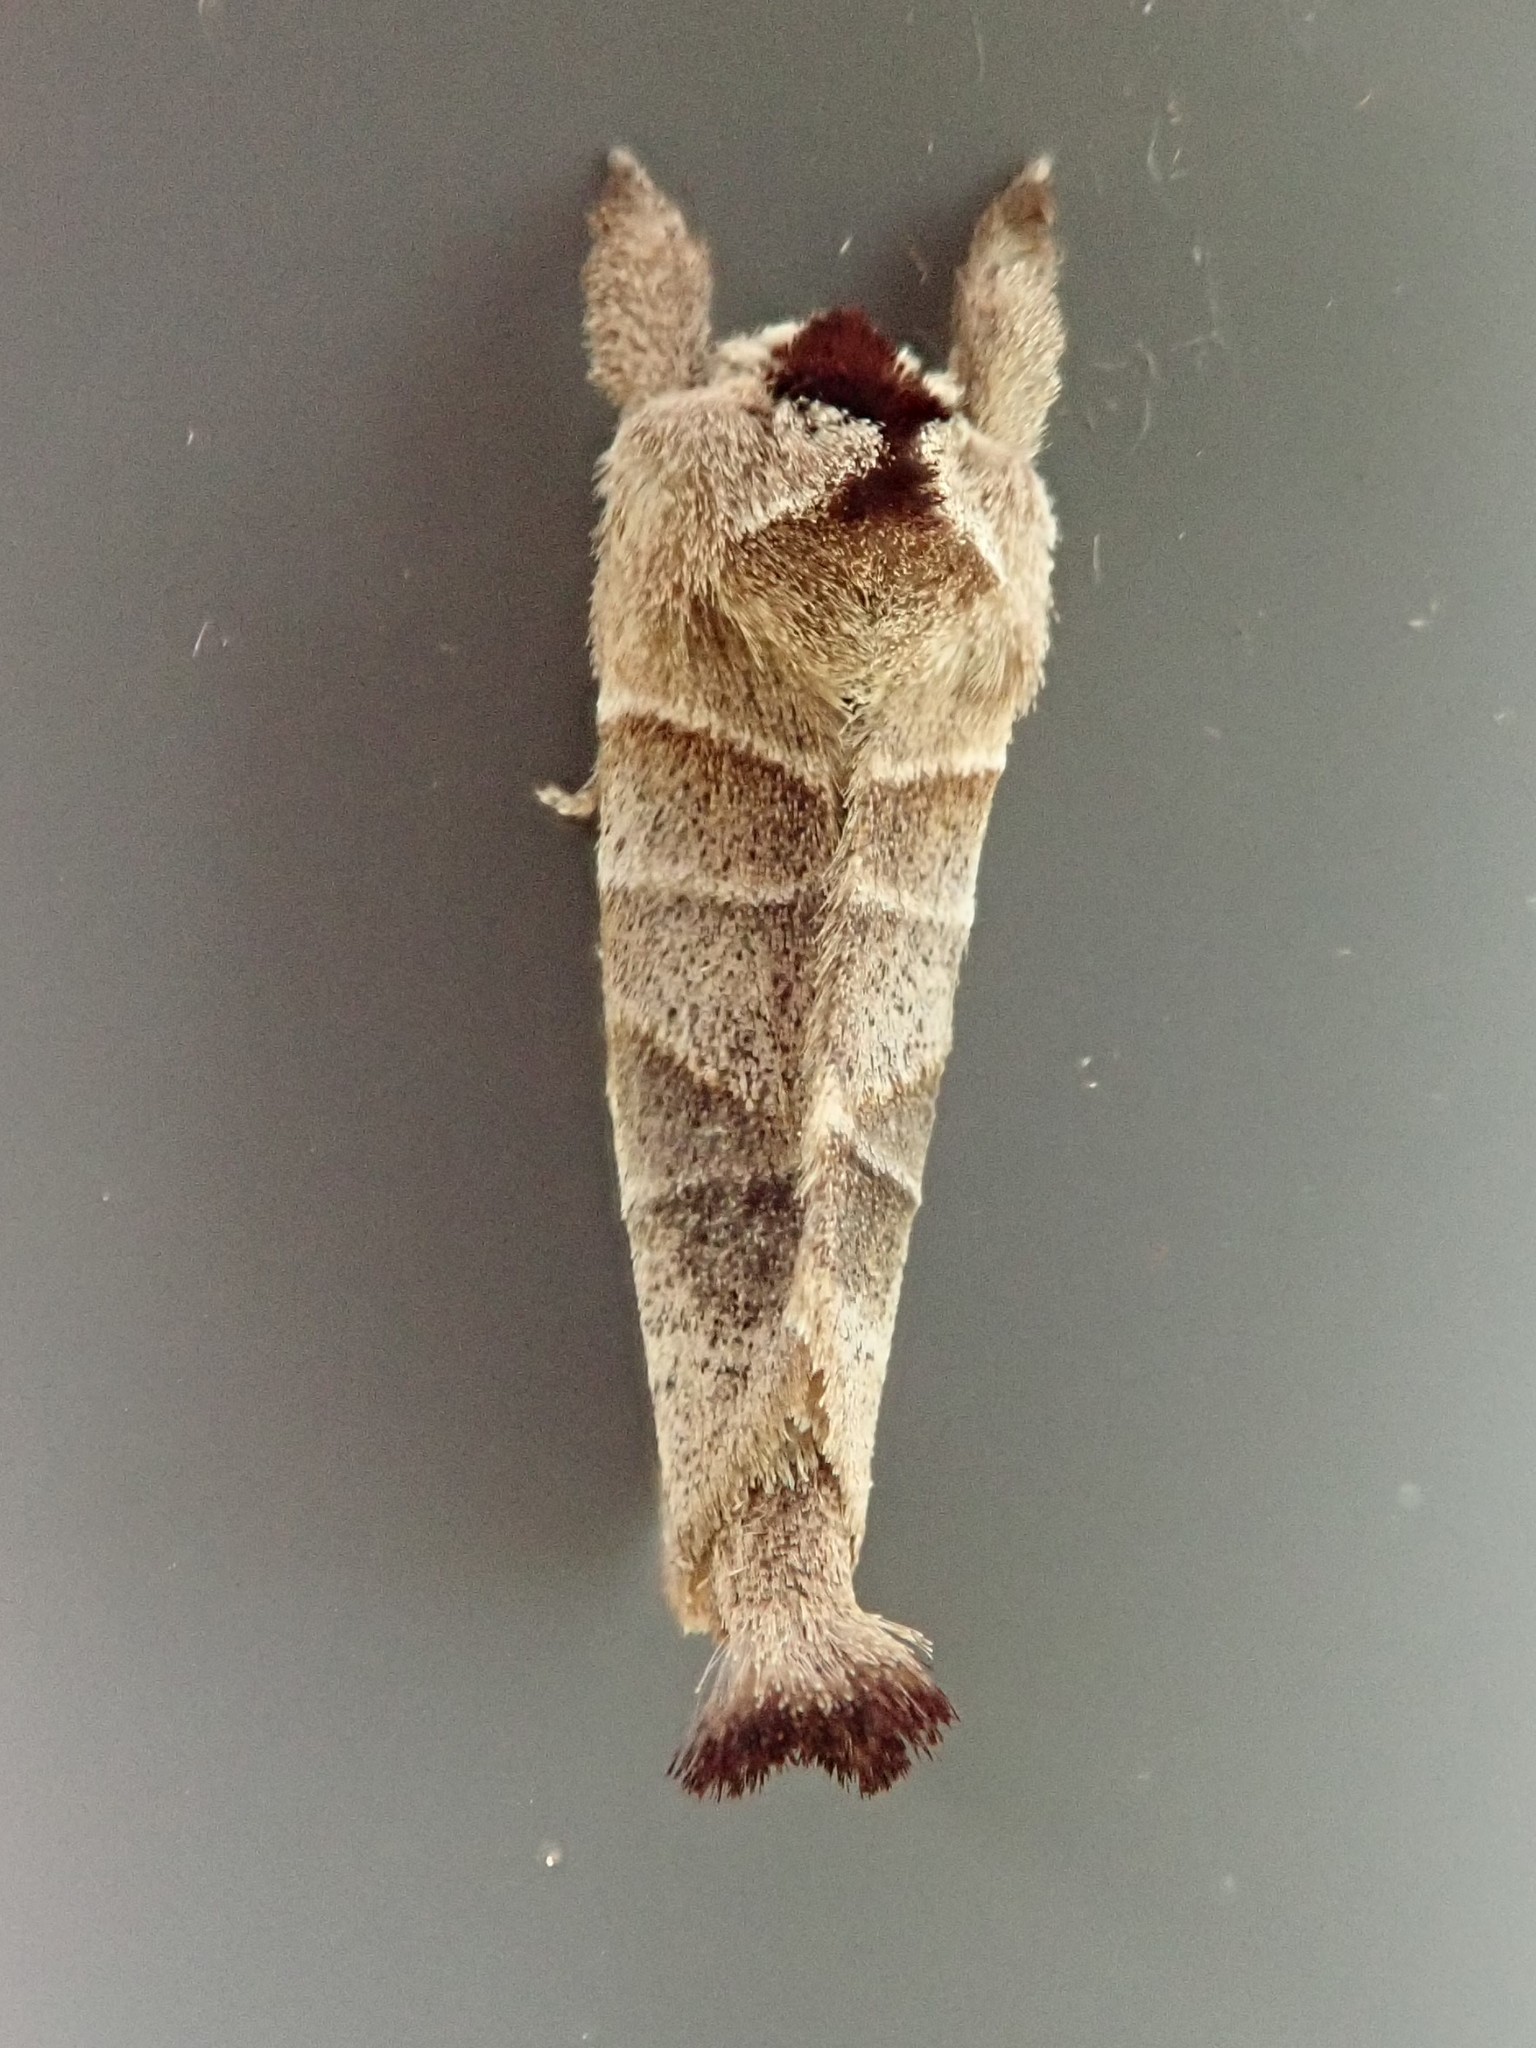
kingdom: Animalia
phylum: Arthropoda
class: Insecta
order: Lepidoptera
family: Notodontidae
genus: Clostera
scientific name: Clostera albosigma
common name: Sigmoid prominent
